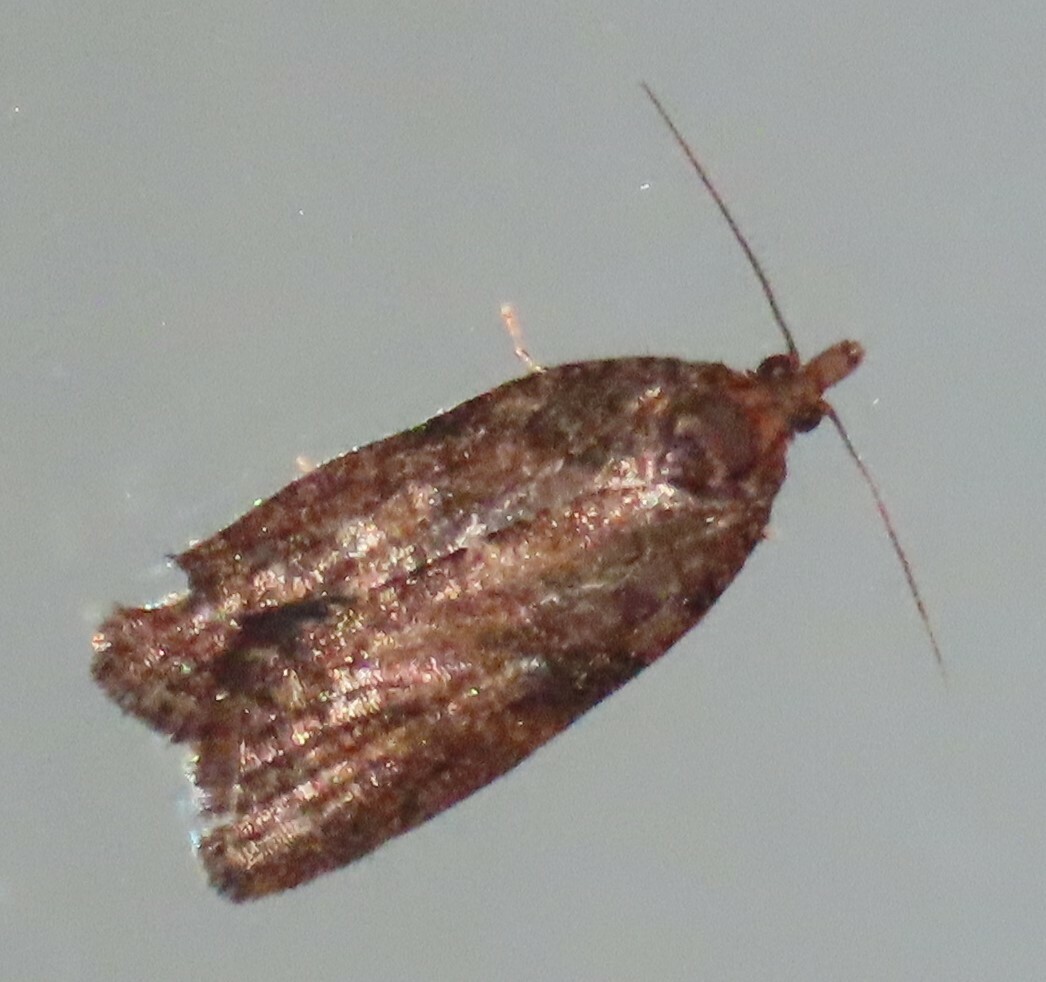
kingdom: Animalia
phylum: Arthropoda
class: Insecta
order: Lepidoptera
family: Tortricidae
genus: Capua
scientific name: Capua intractana
